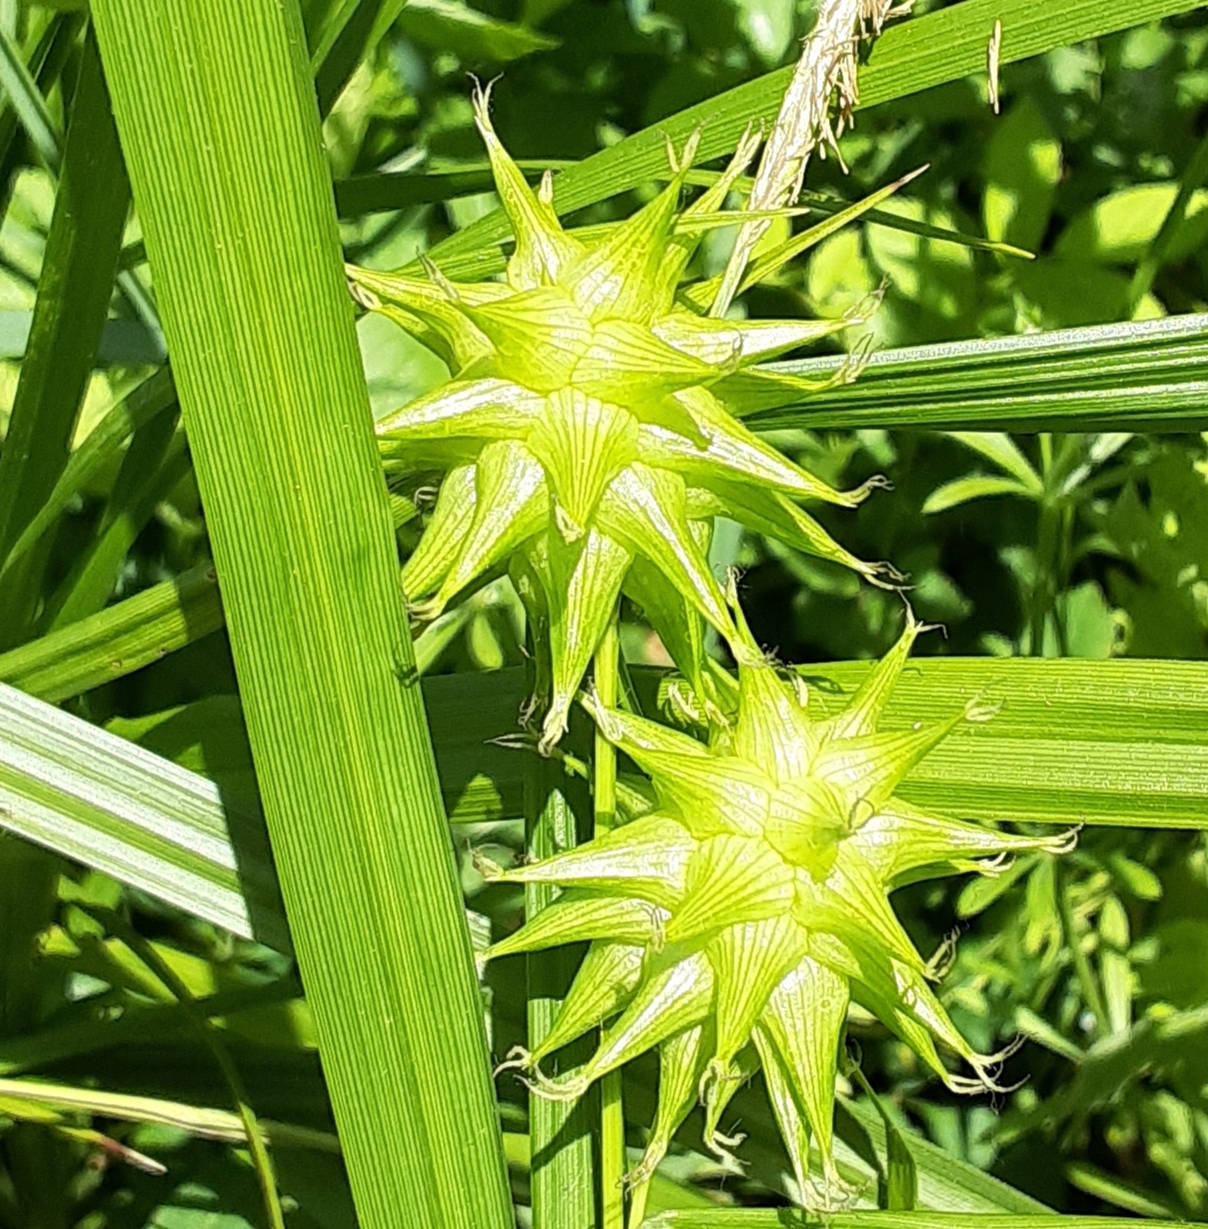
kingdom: Plantae
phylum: Tracheophyta
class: Liliopsida
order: Poales
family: Cyperaceae
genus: Carex
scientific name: Carex grayi
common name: Asa gray's sedge
